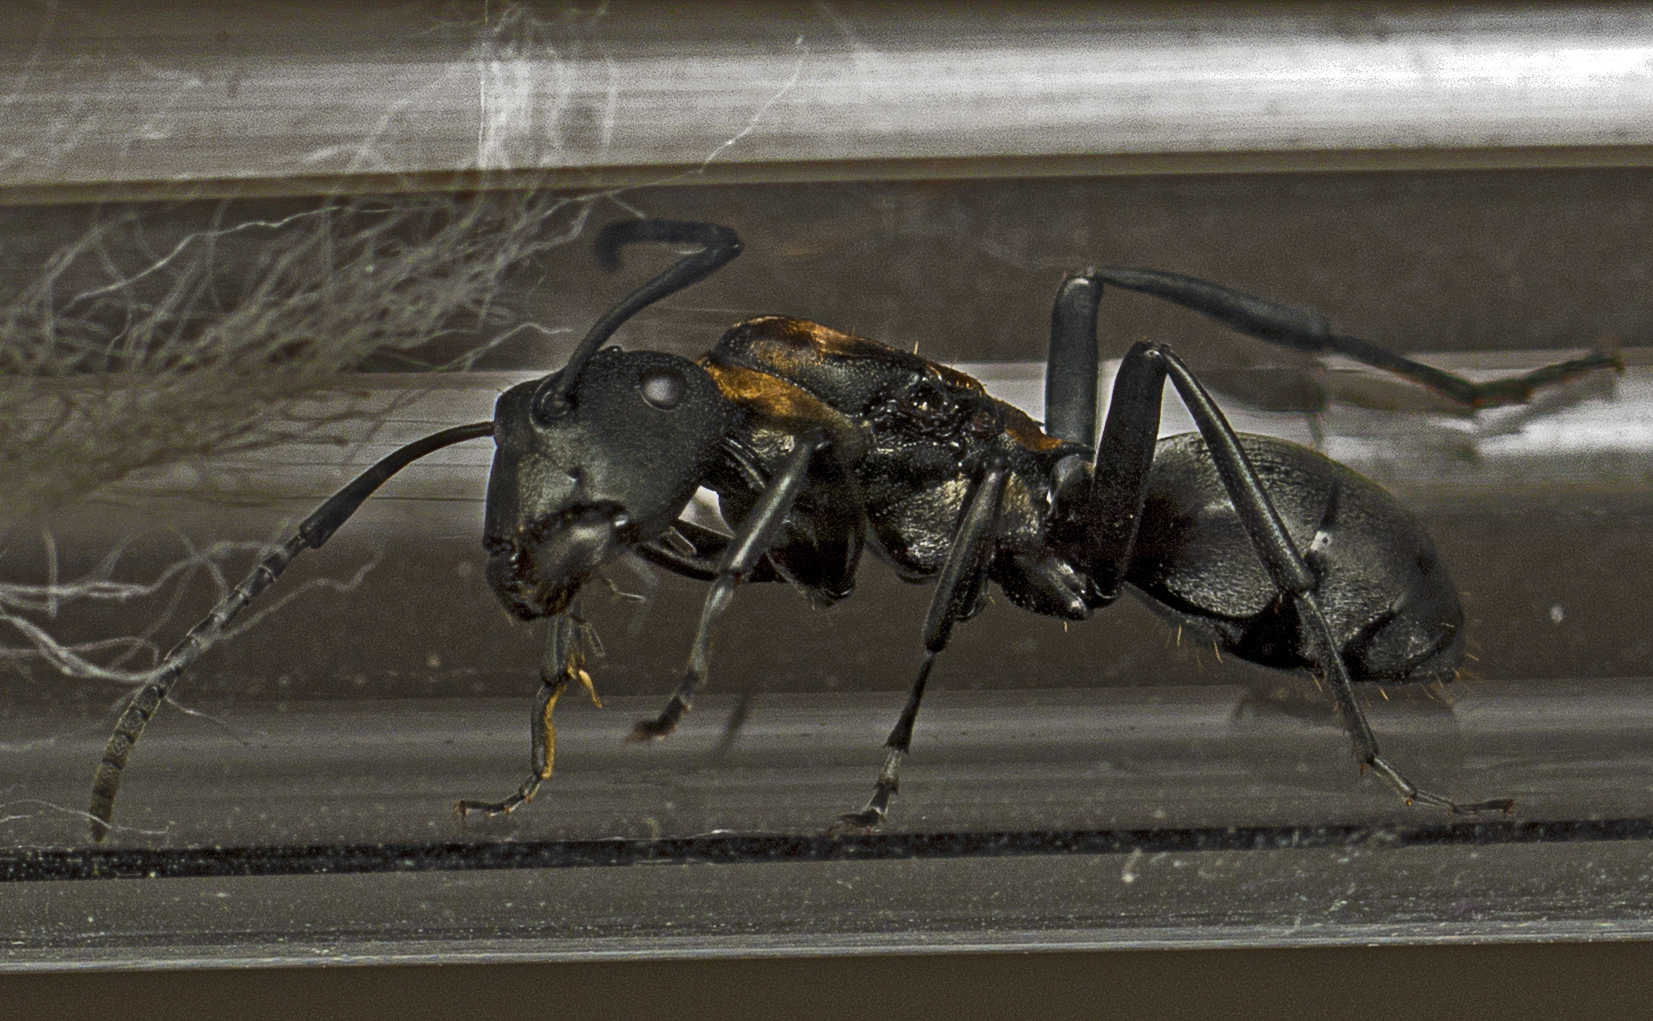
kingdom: Animalia
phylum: Arthropoda
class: Insecta
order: Hymenoptera
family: Formicidae
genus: Polyrhachis
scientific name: Polyrhachis ornata
